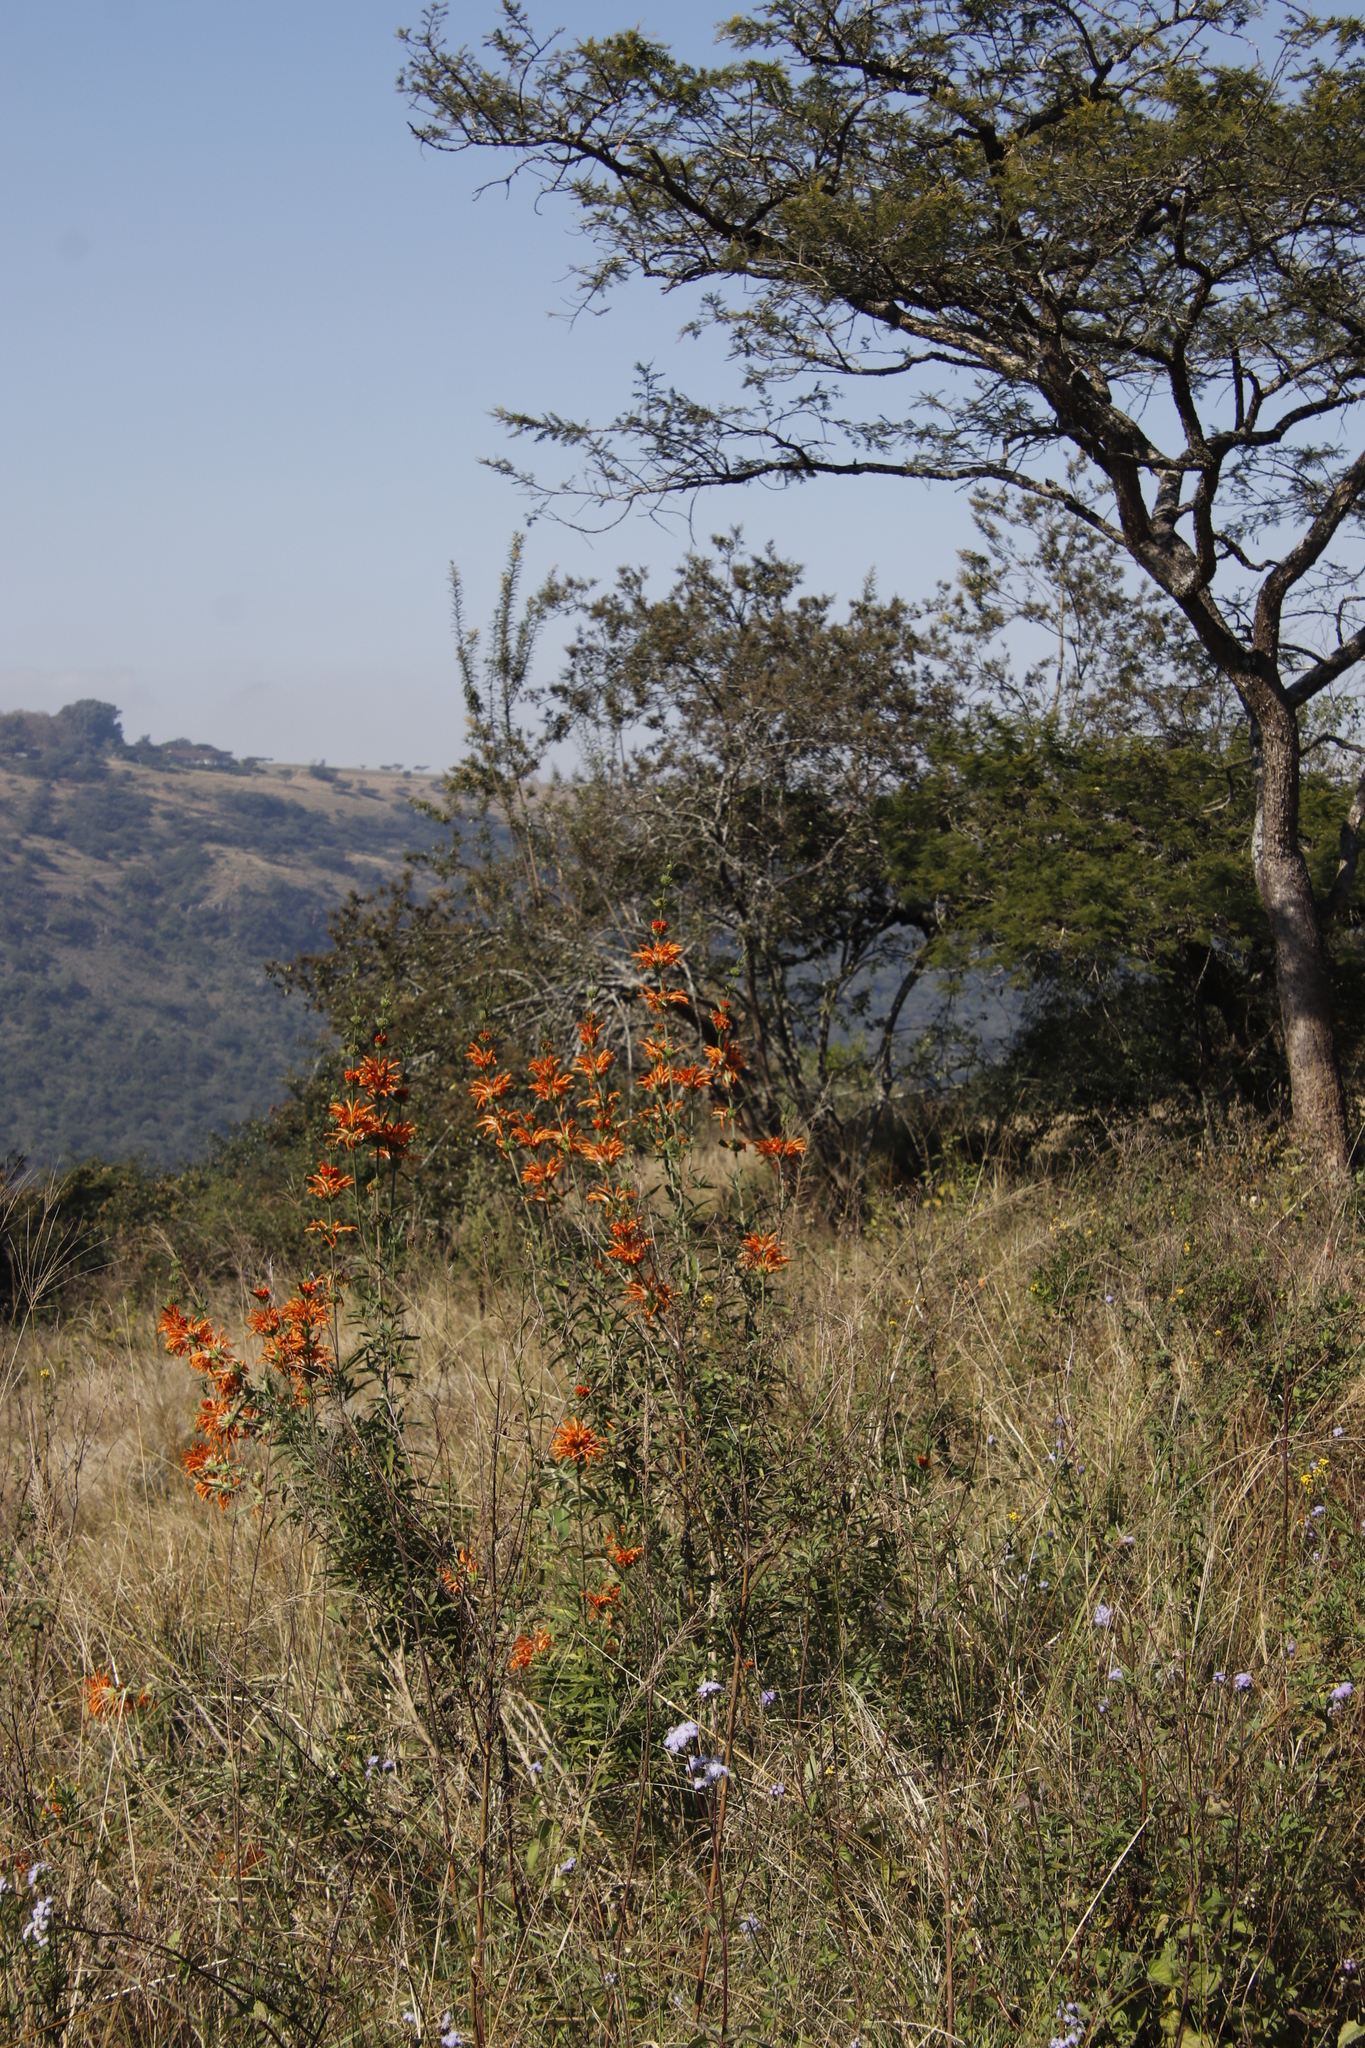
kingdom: Plantae
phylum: Tracheophyta
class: Magnoliopsida
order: Lamiales
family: Lamiaceae
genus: Leonotis
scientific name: Leonotis leonurus
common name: Lion's ear
